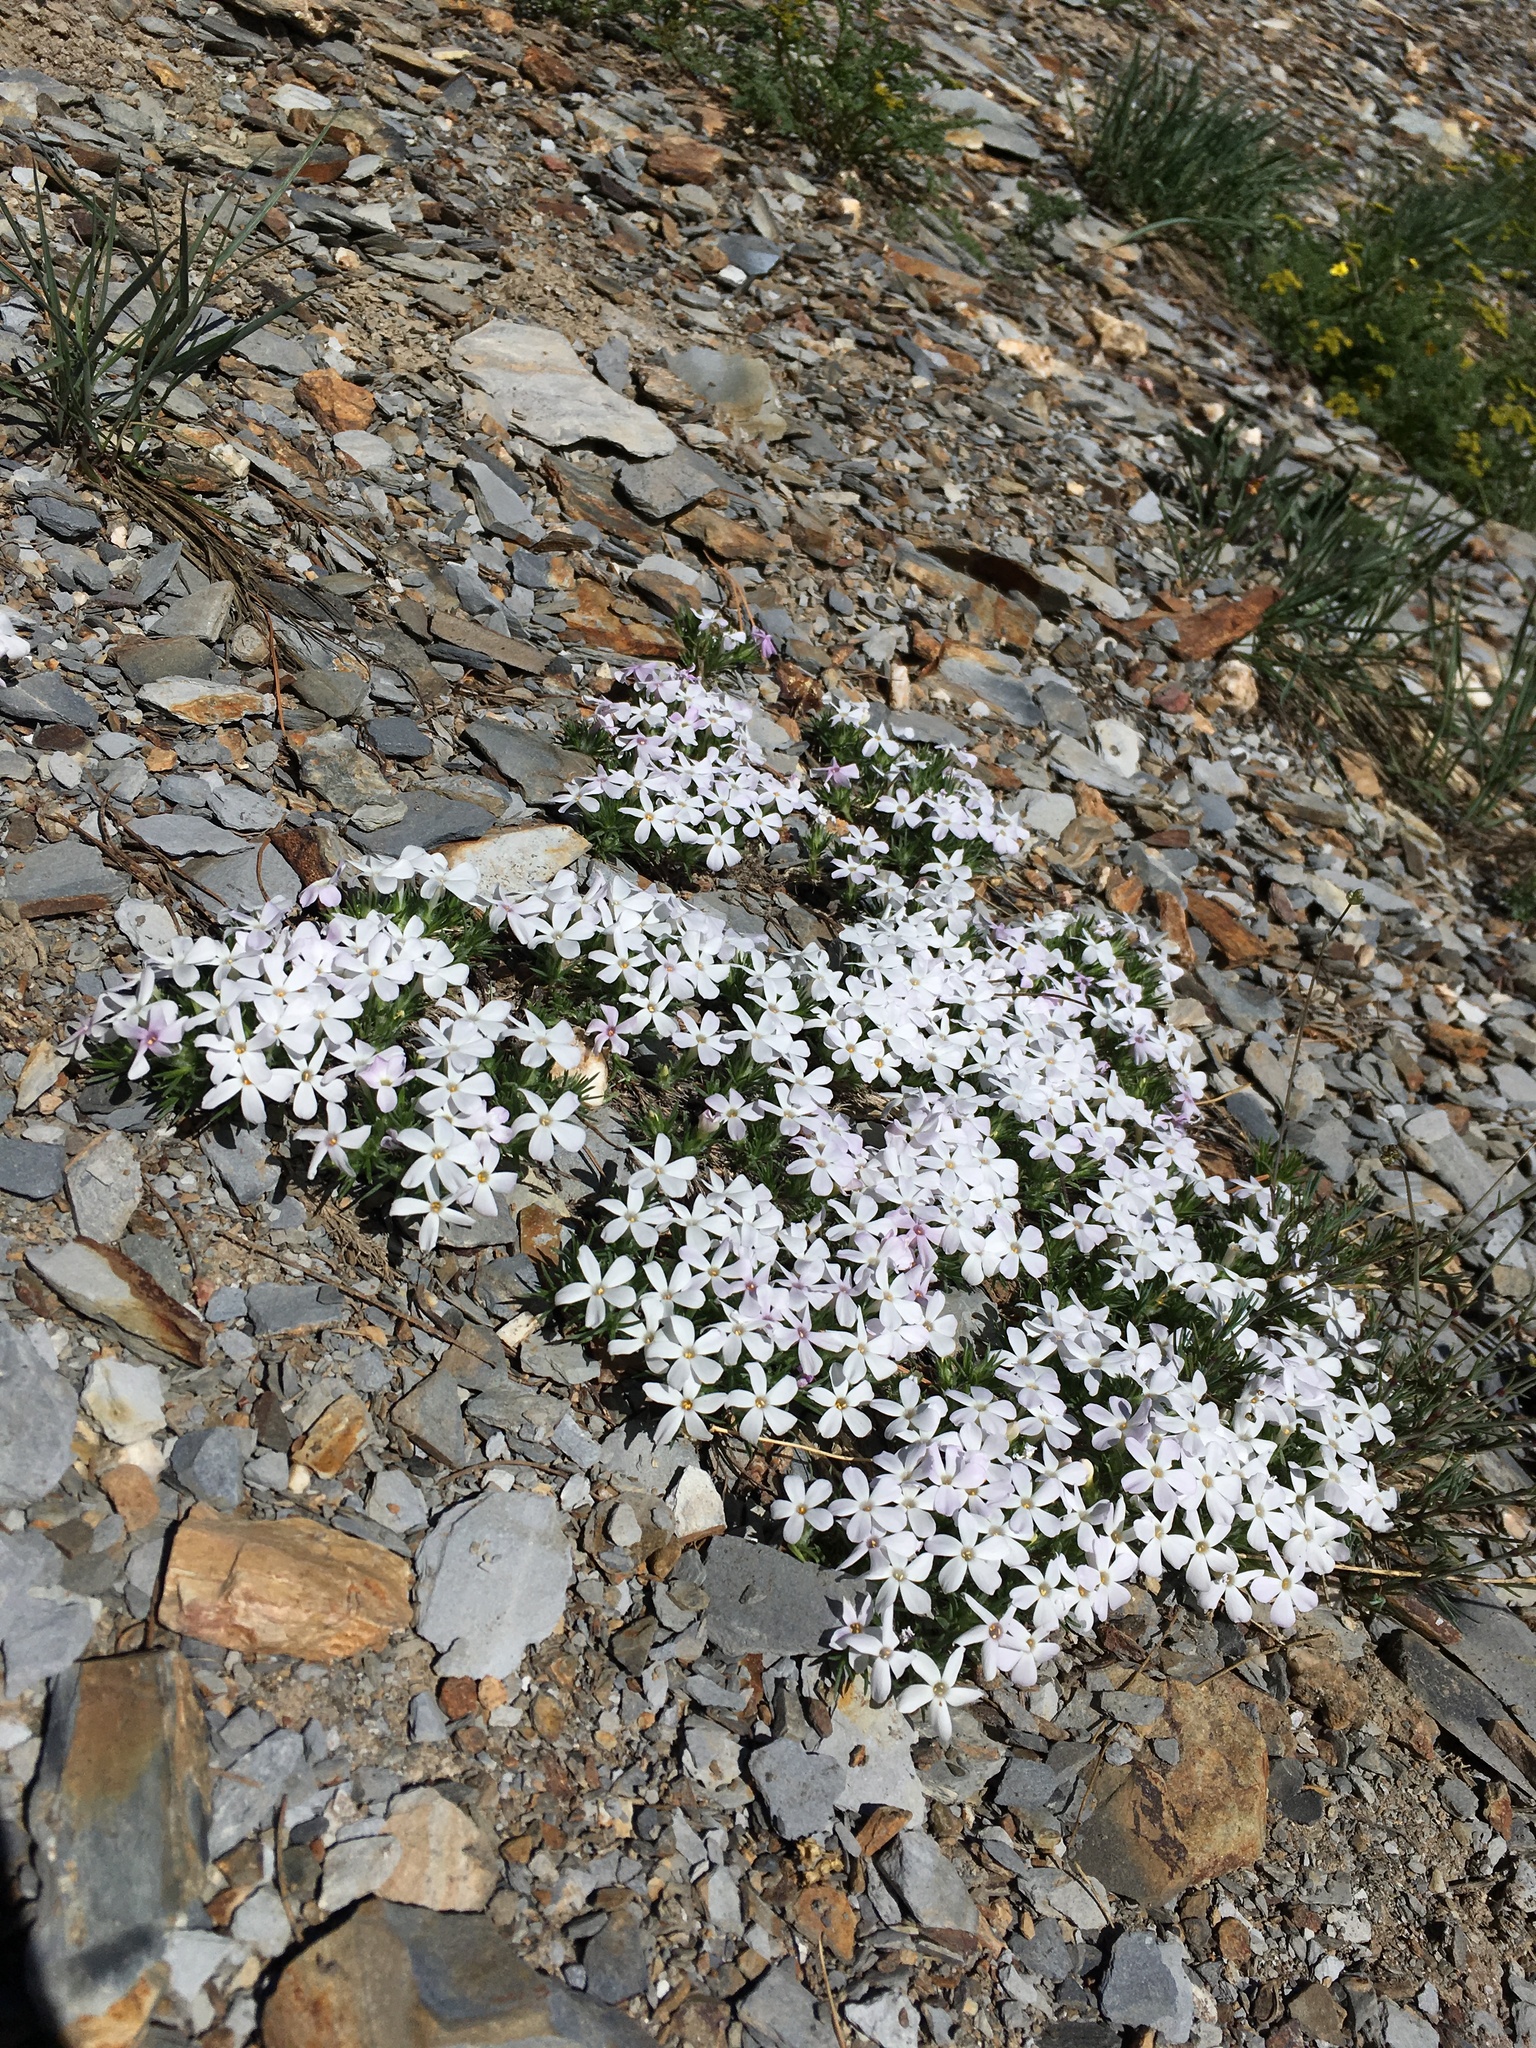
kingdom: Plantae
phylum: Tracheophyta
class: Magnoliopsida
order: Ericales
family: Polemoniaceae
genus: Phlox
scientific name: Phlox diffusa
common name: Mat phlox
